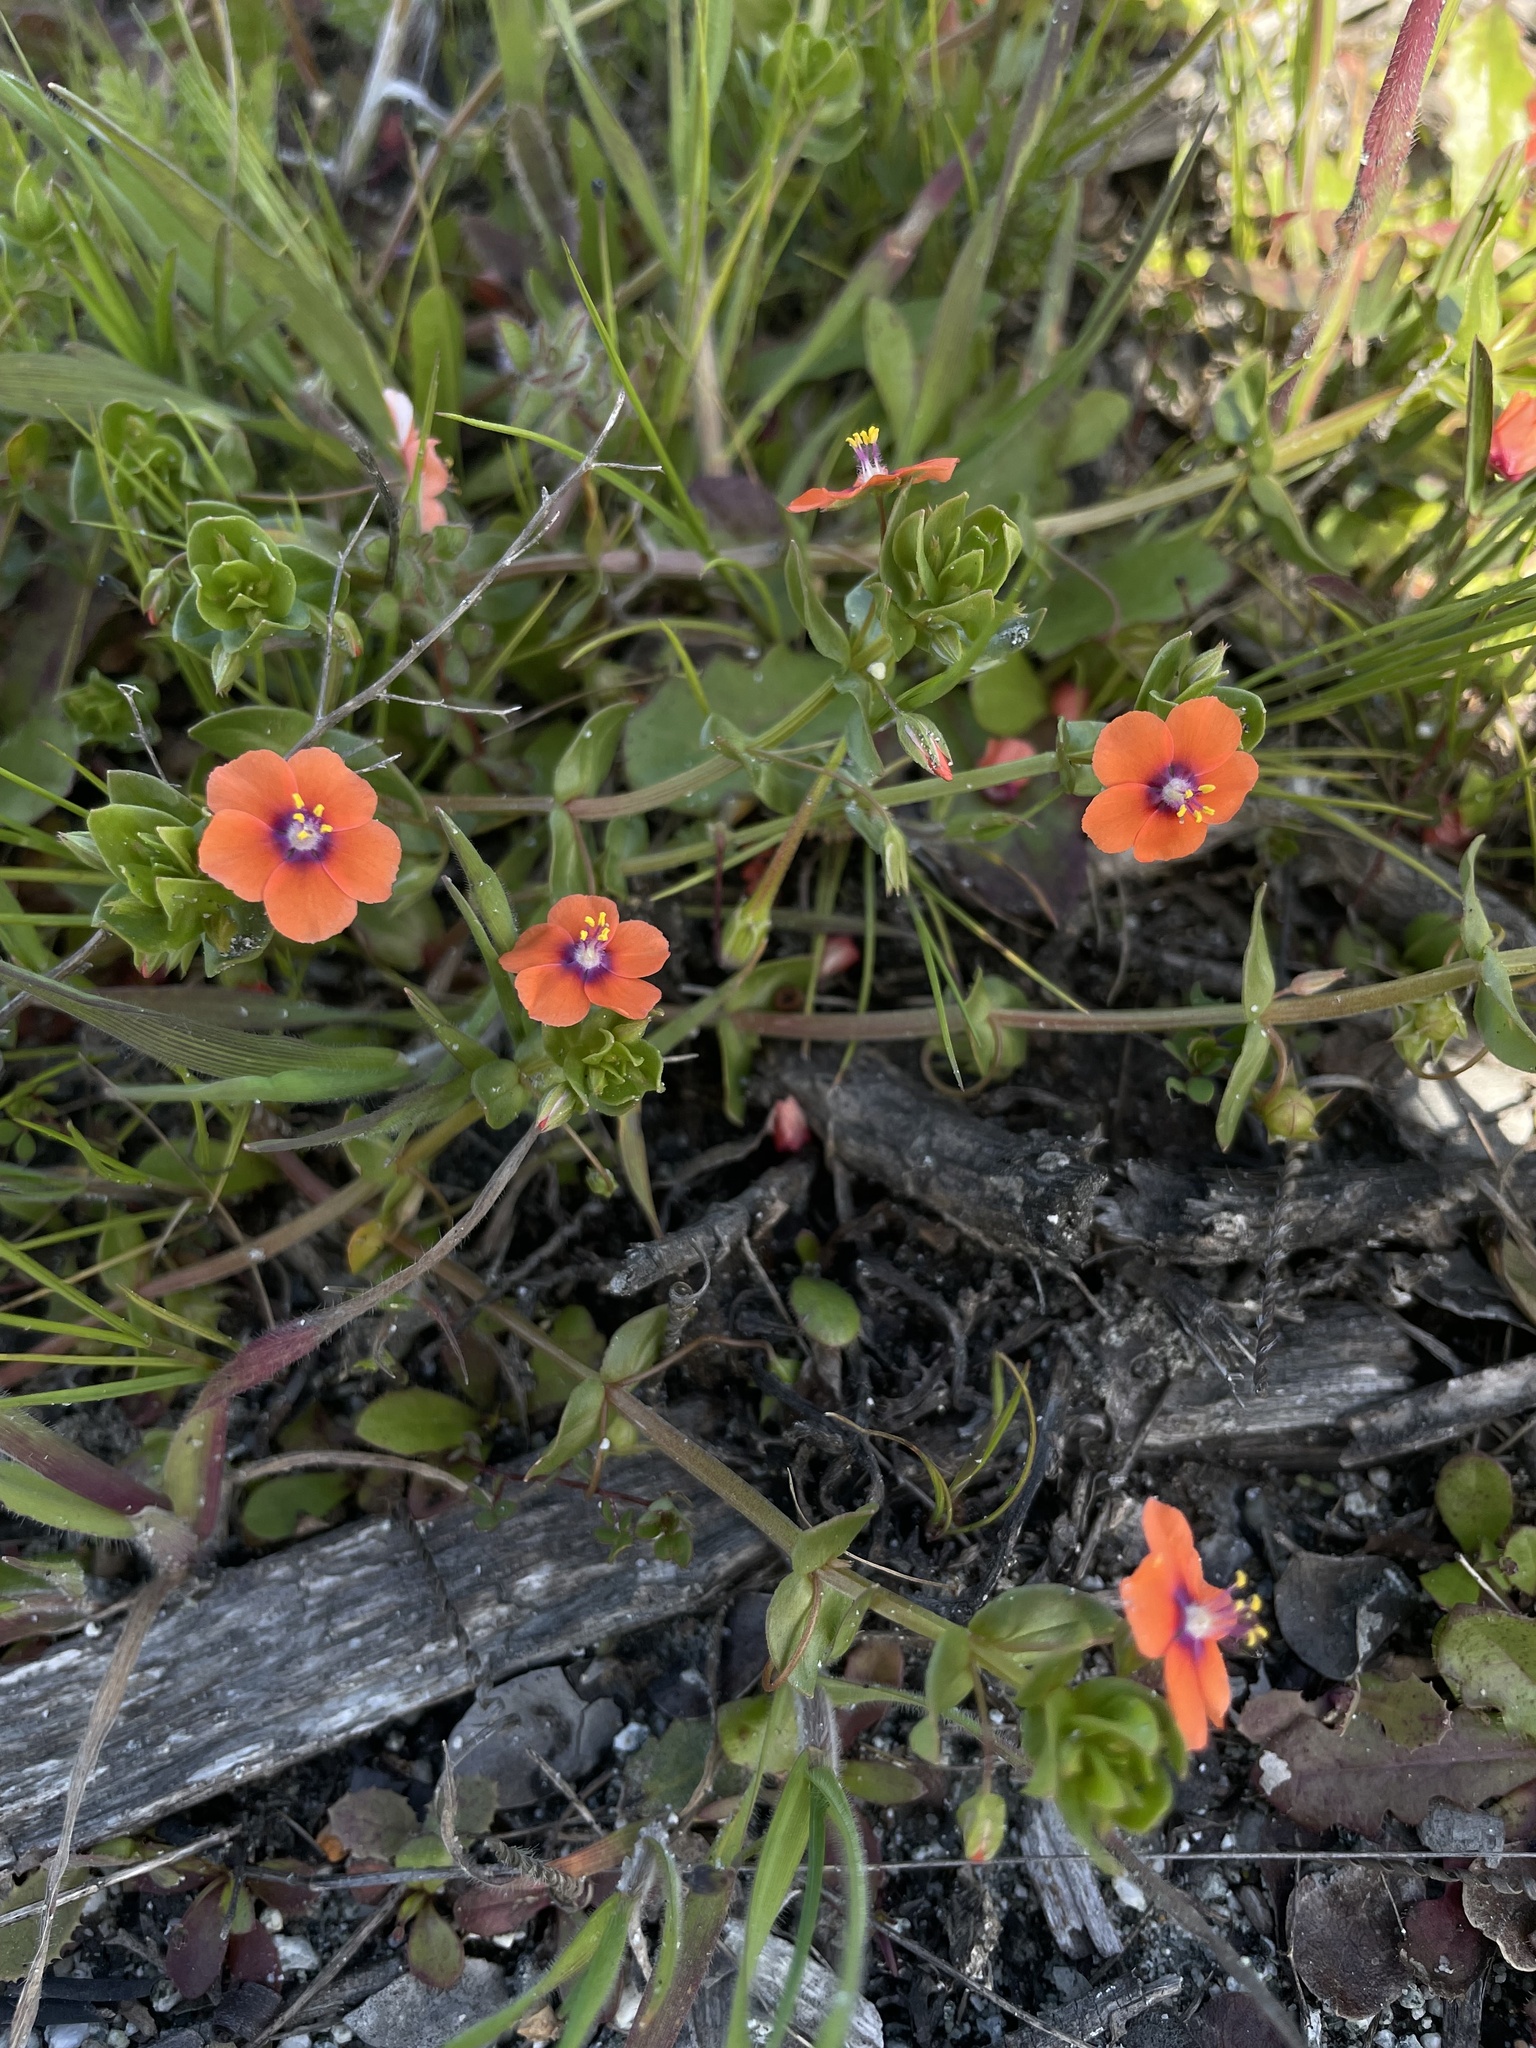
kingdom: Plantae
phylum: Tracheophyta
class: Magnoliopsida
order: Ericales
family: Primulaceae
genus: Lysimachia
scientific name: Lysimachia arvensis
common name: Scarlet pimpernel
